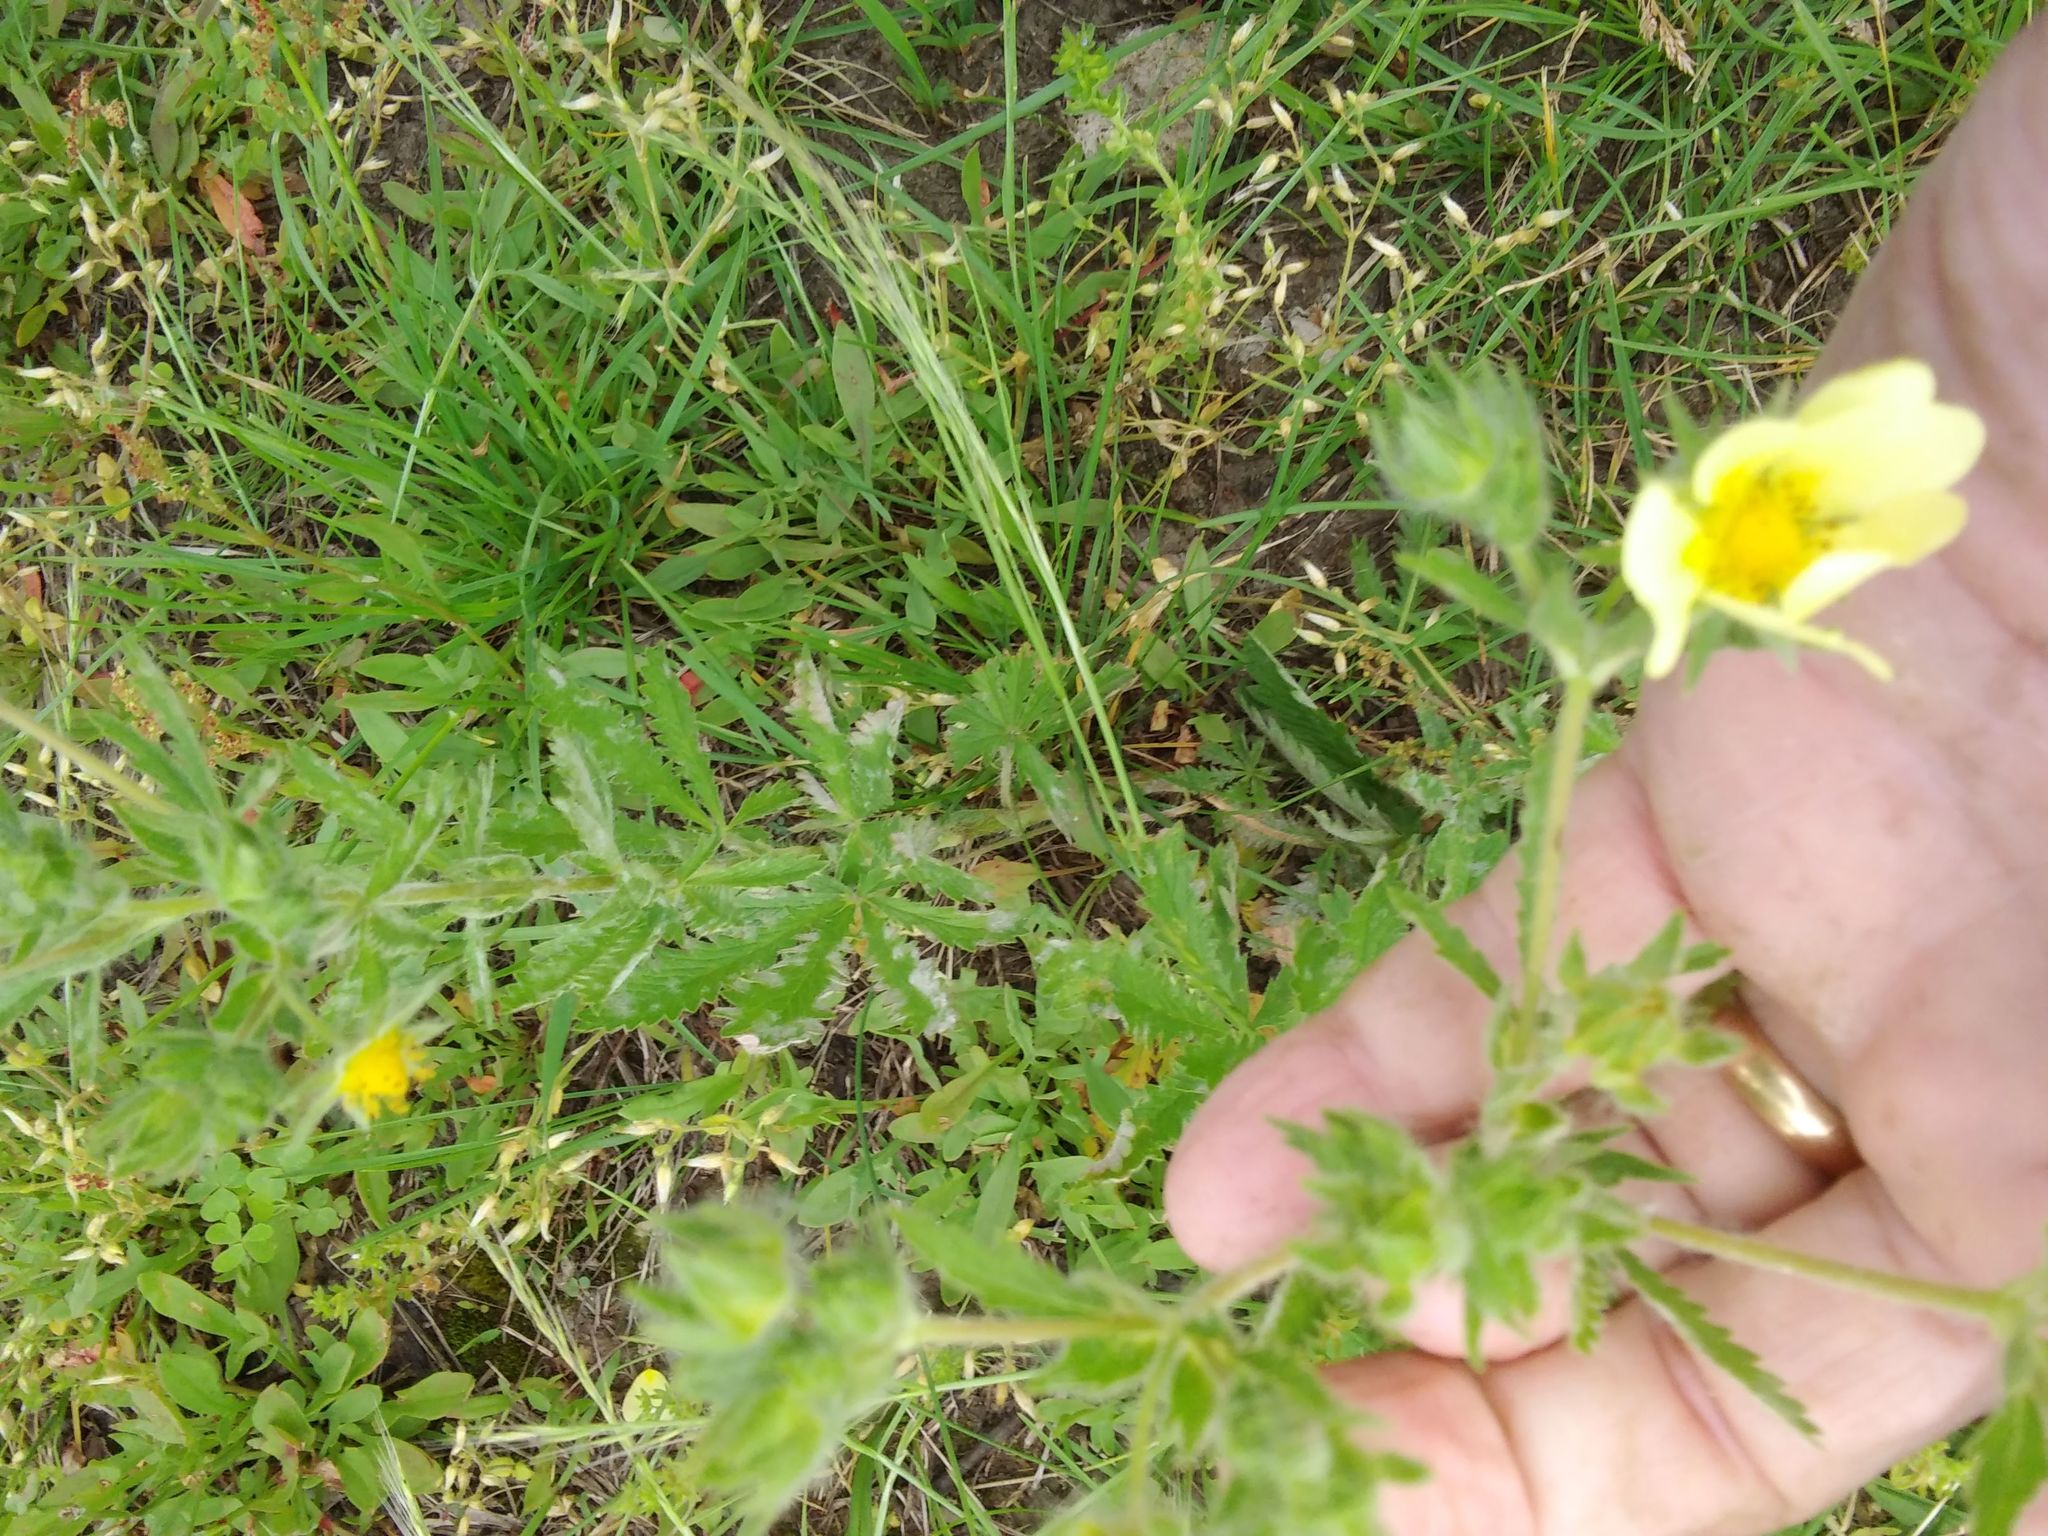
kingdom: Plantae
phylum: Tracheophyta
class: Magnoliopsida
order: Rosales
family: Rosaceae
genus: Potentilla
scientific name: Potentilla recta
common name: Sulphur cinquefoil
